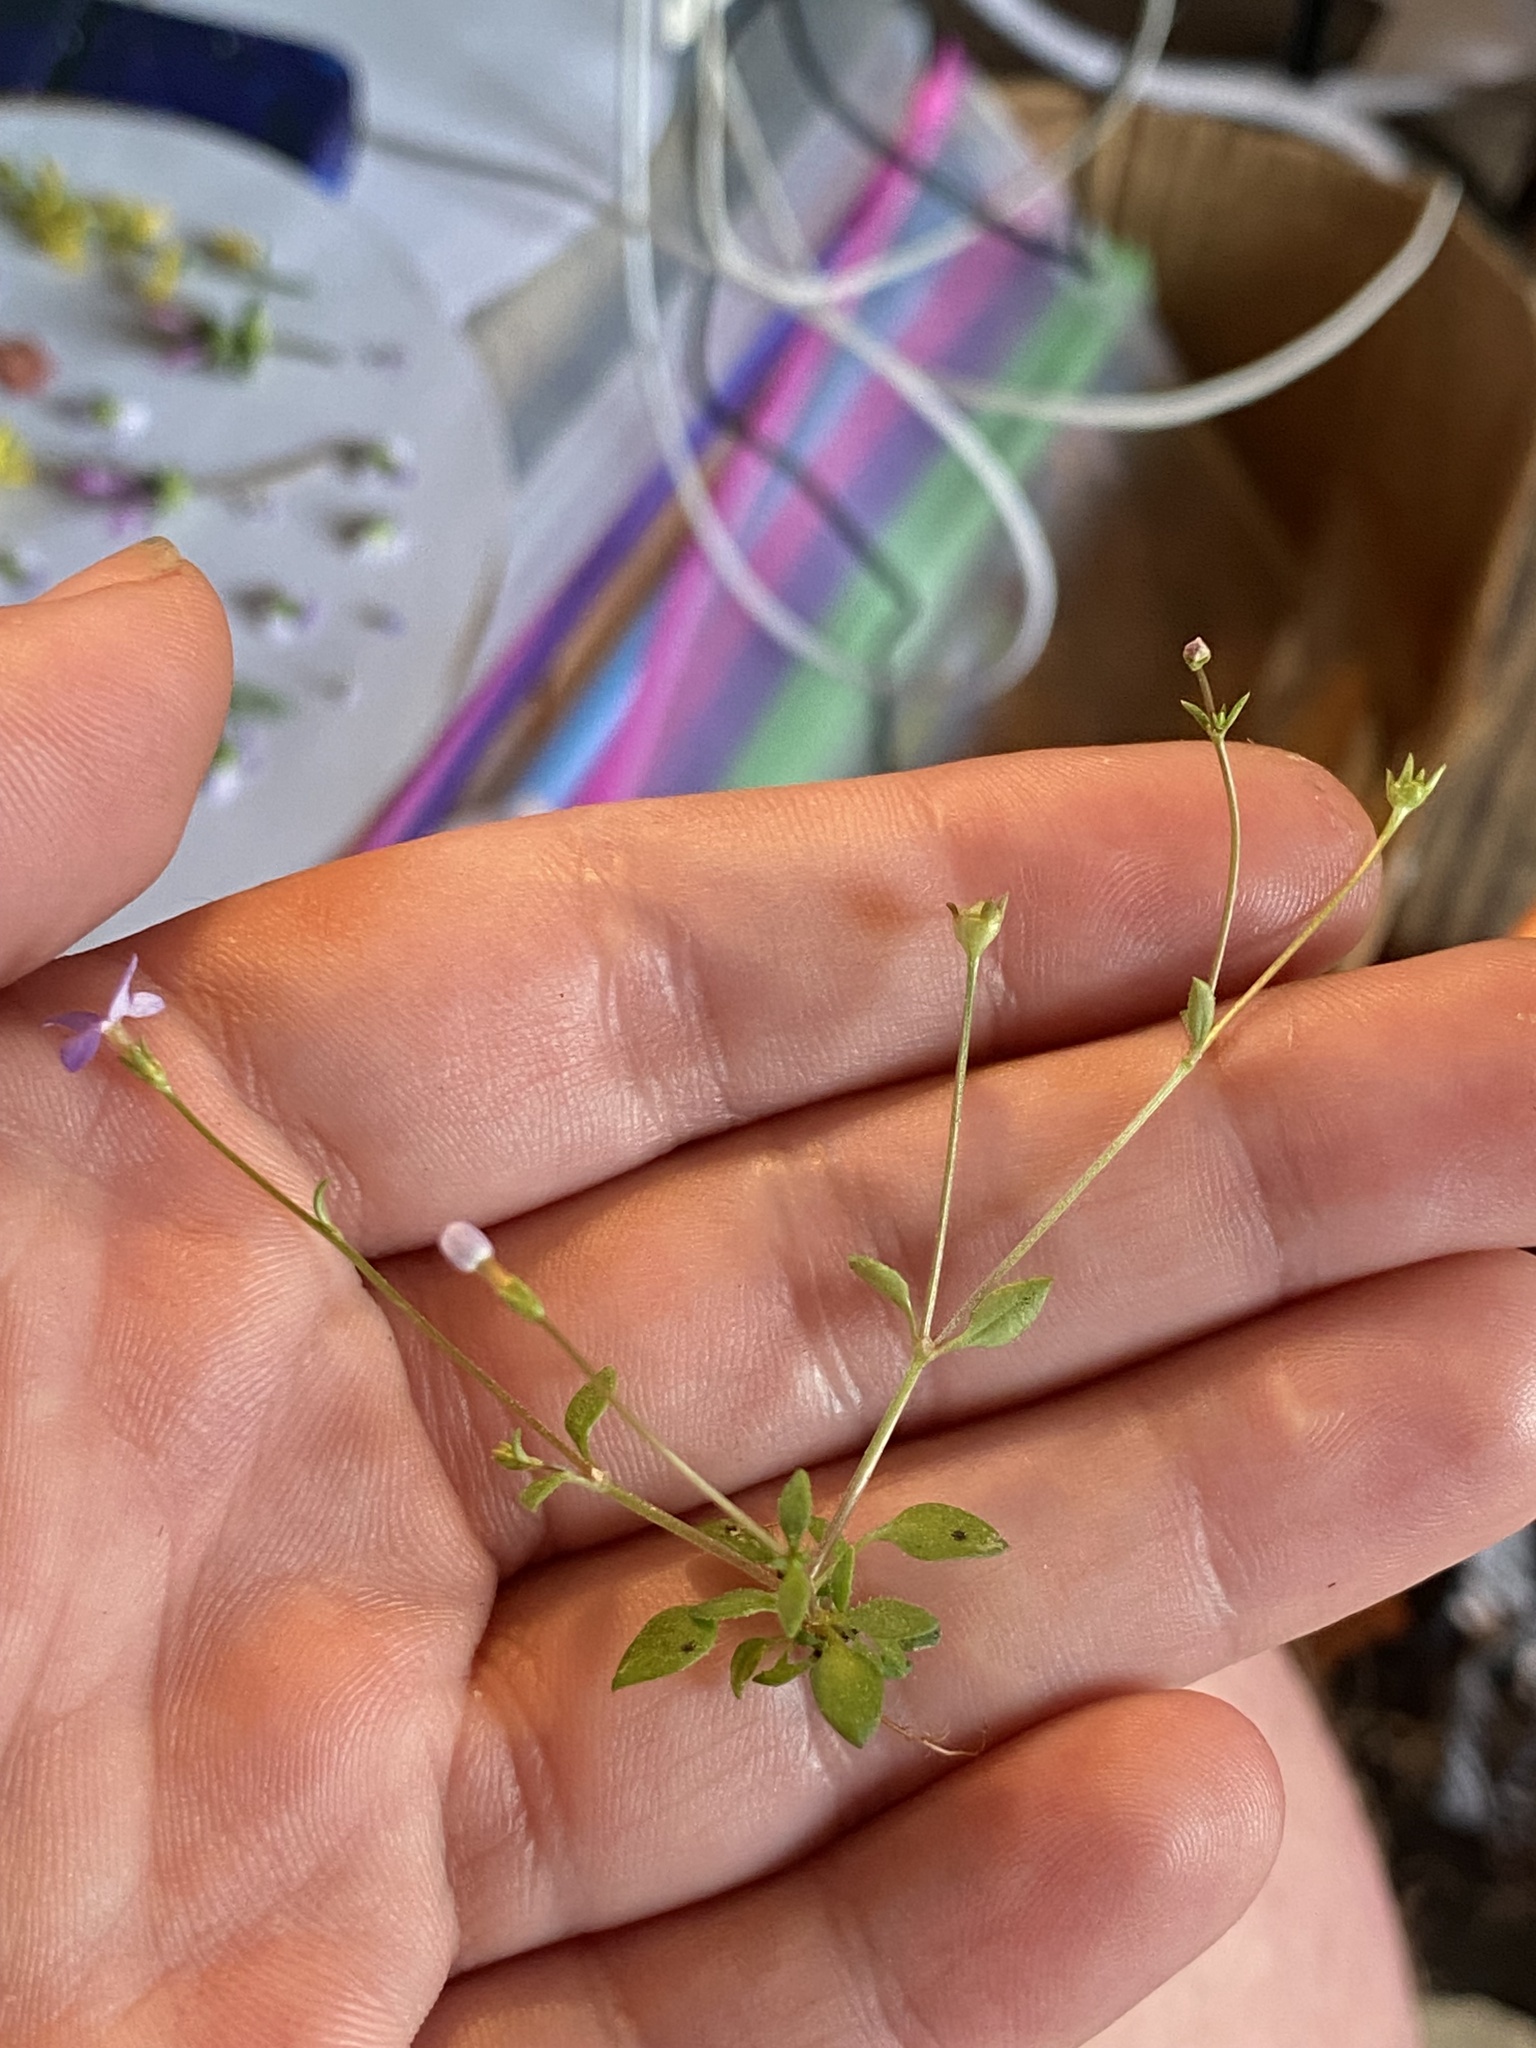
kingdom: Plantae
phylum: Tracheophyta
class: Magnoliopsida
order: Gentianales
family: Rubiaceae
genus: Houstonia
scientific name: Houstonia pusilla
